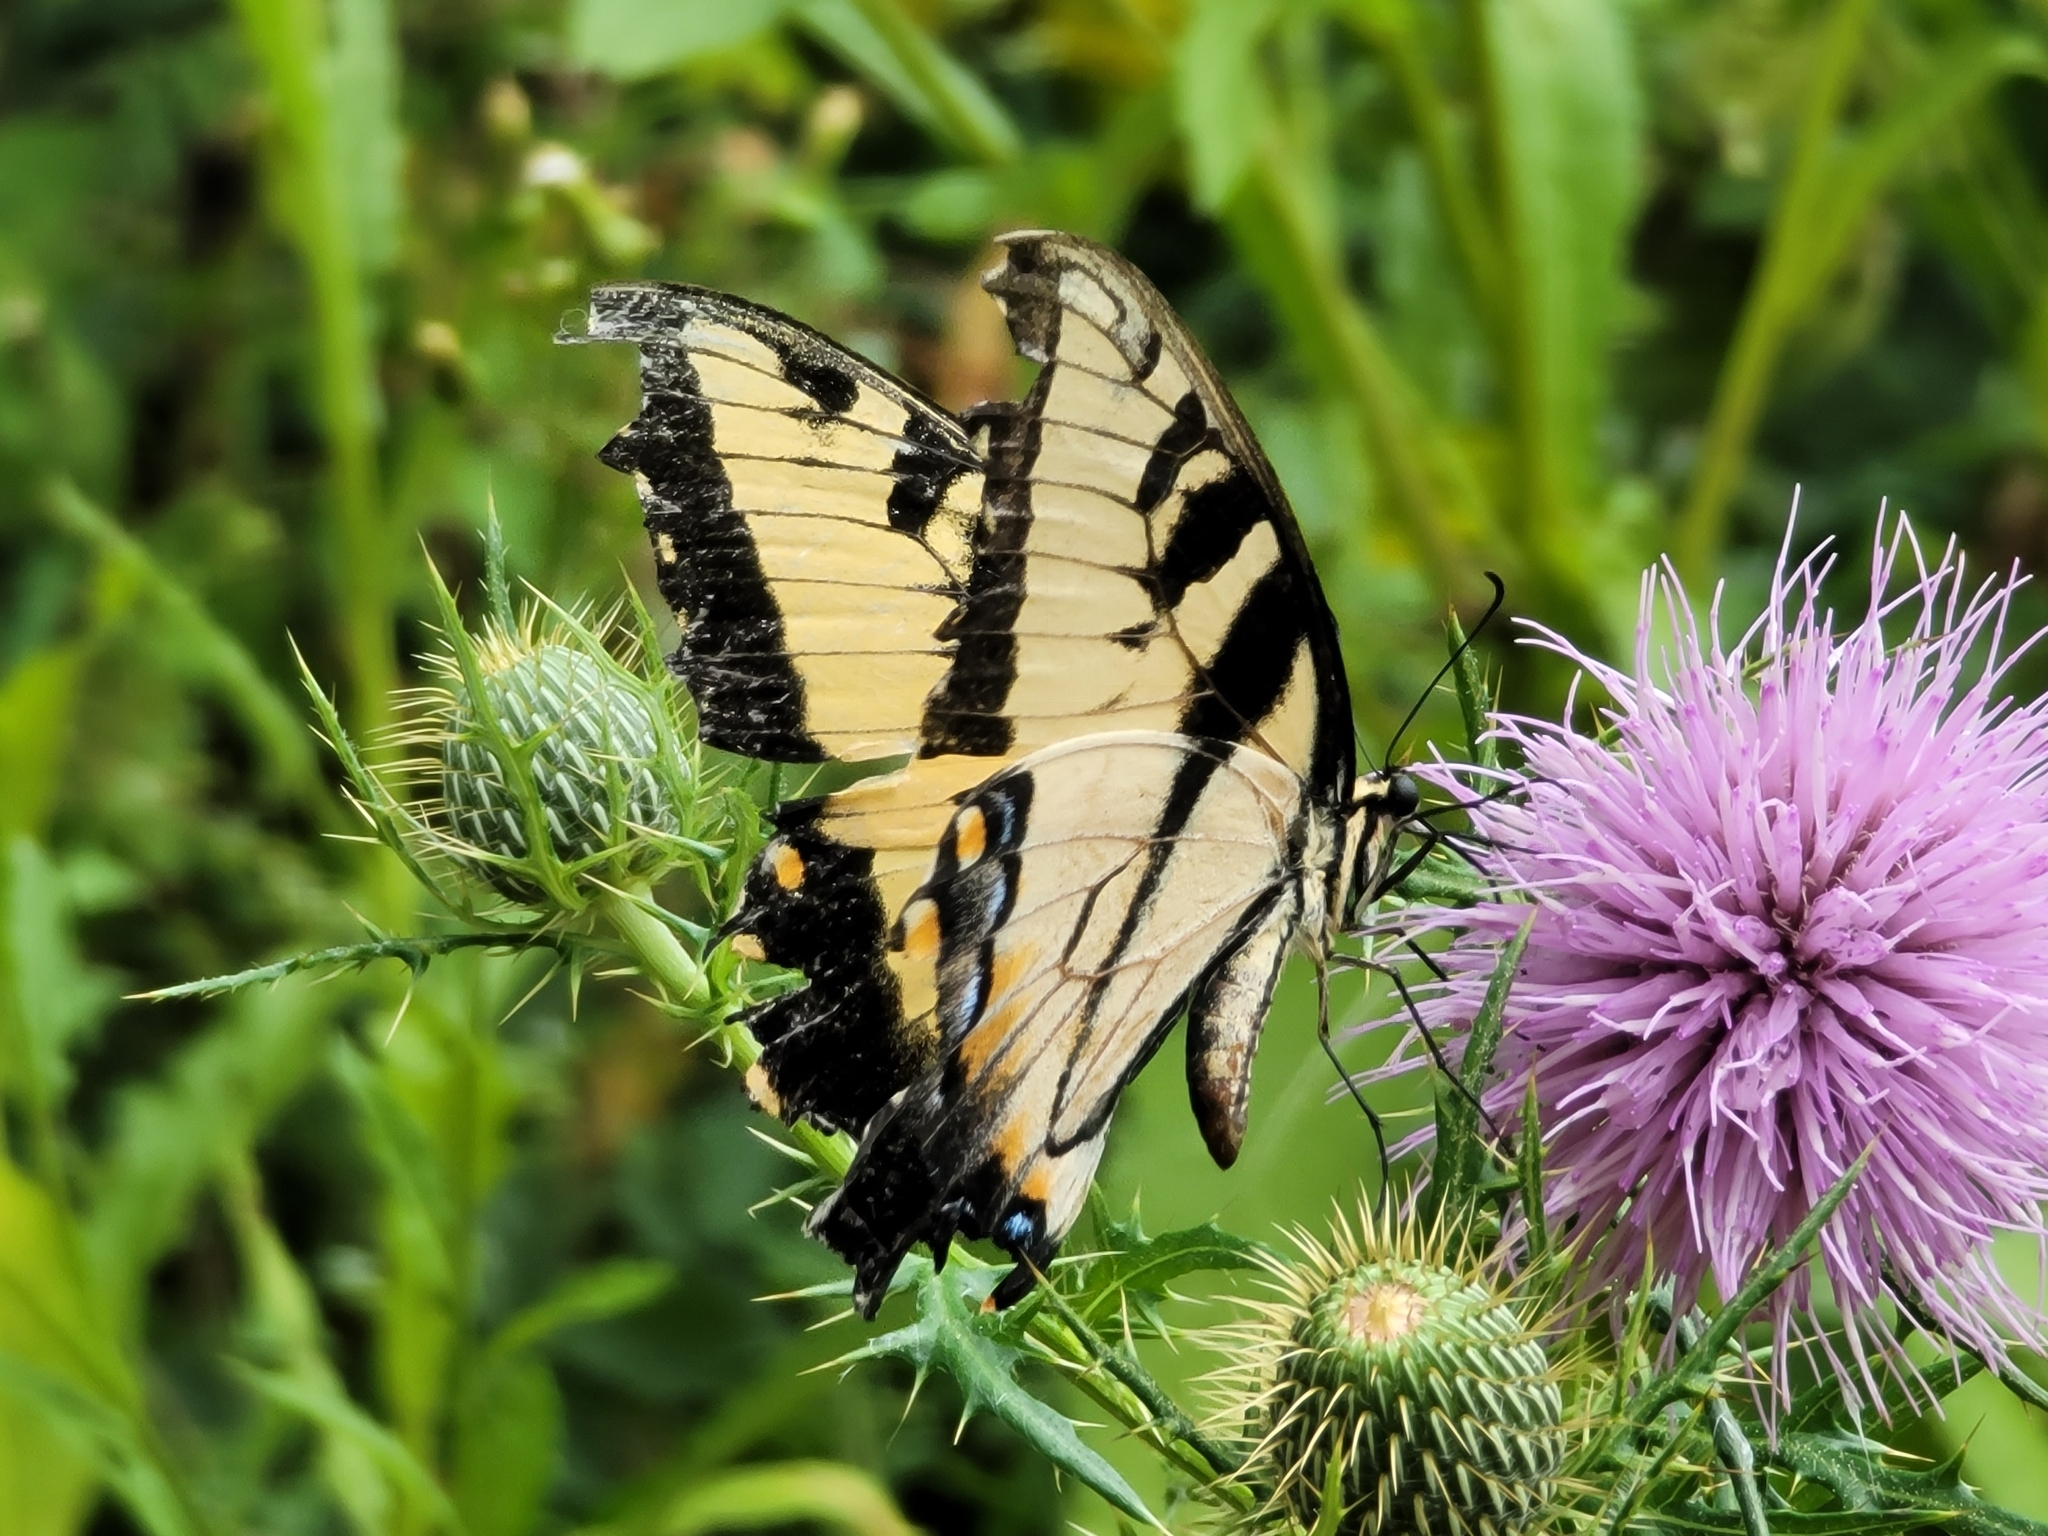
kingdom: Animalia
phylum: Arthropoda
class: Insecta
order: Lepidoptera
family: Papilionidae
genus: Papilio
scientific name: Papilio glaucus
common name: Tiger swallowtail
